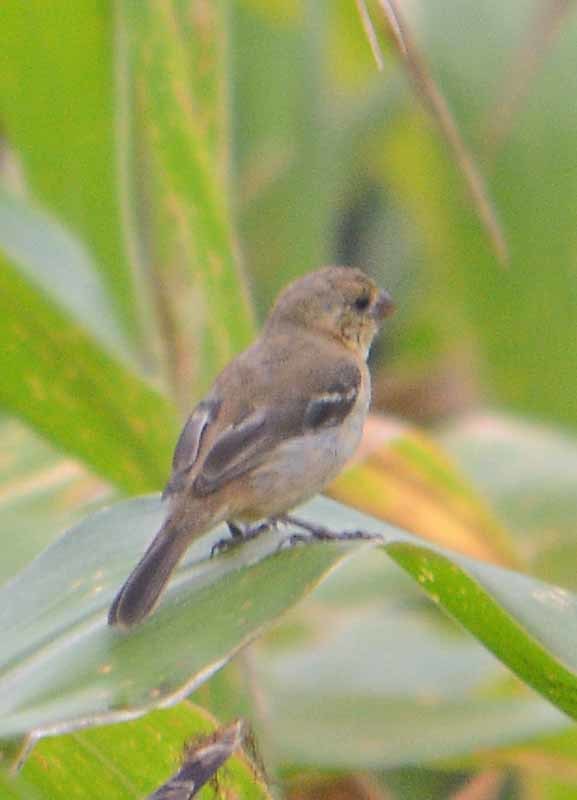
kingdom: Animalia
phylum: Chordata
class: Aves
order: Passeriformes
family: Thraupidae
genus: Sporophila
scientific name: Sporophila morelleti
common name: Morelet's seedeater
